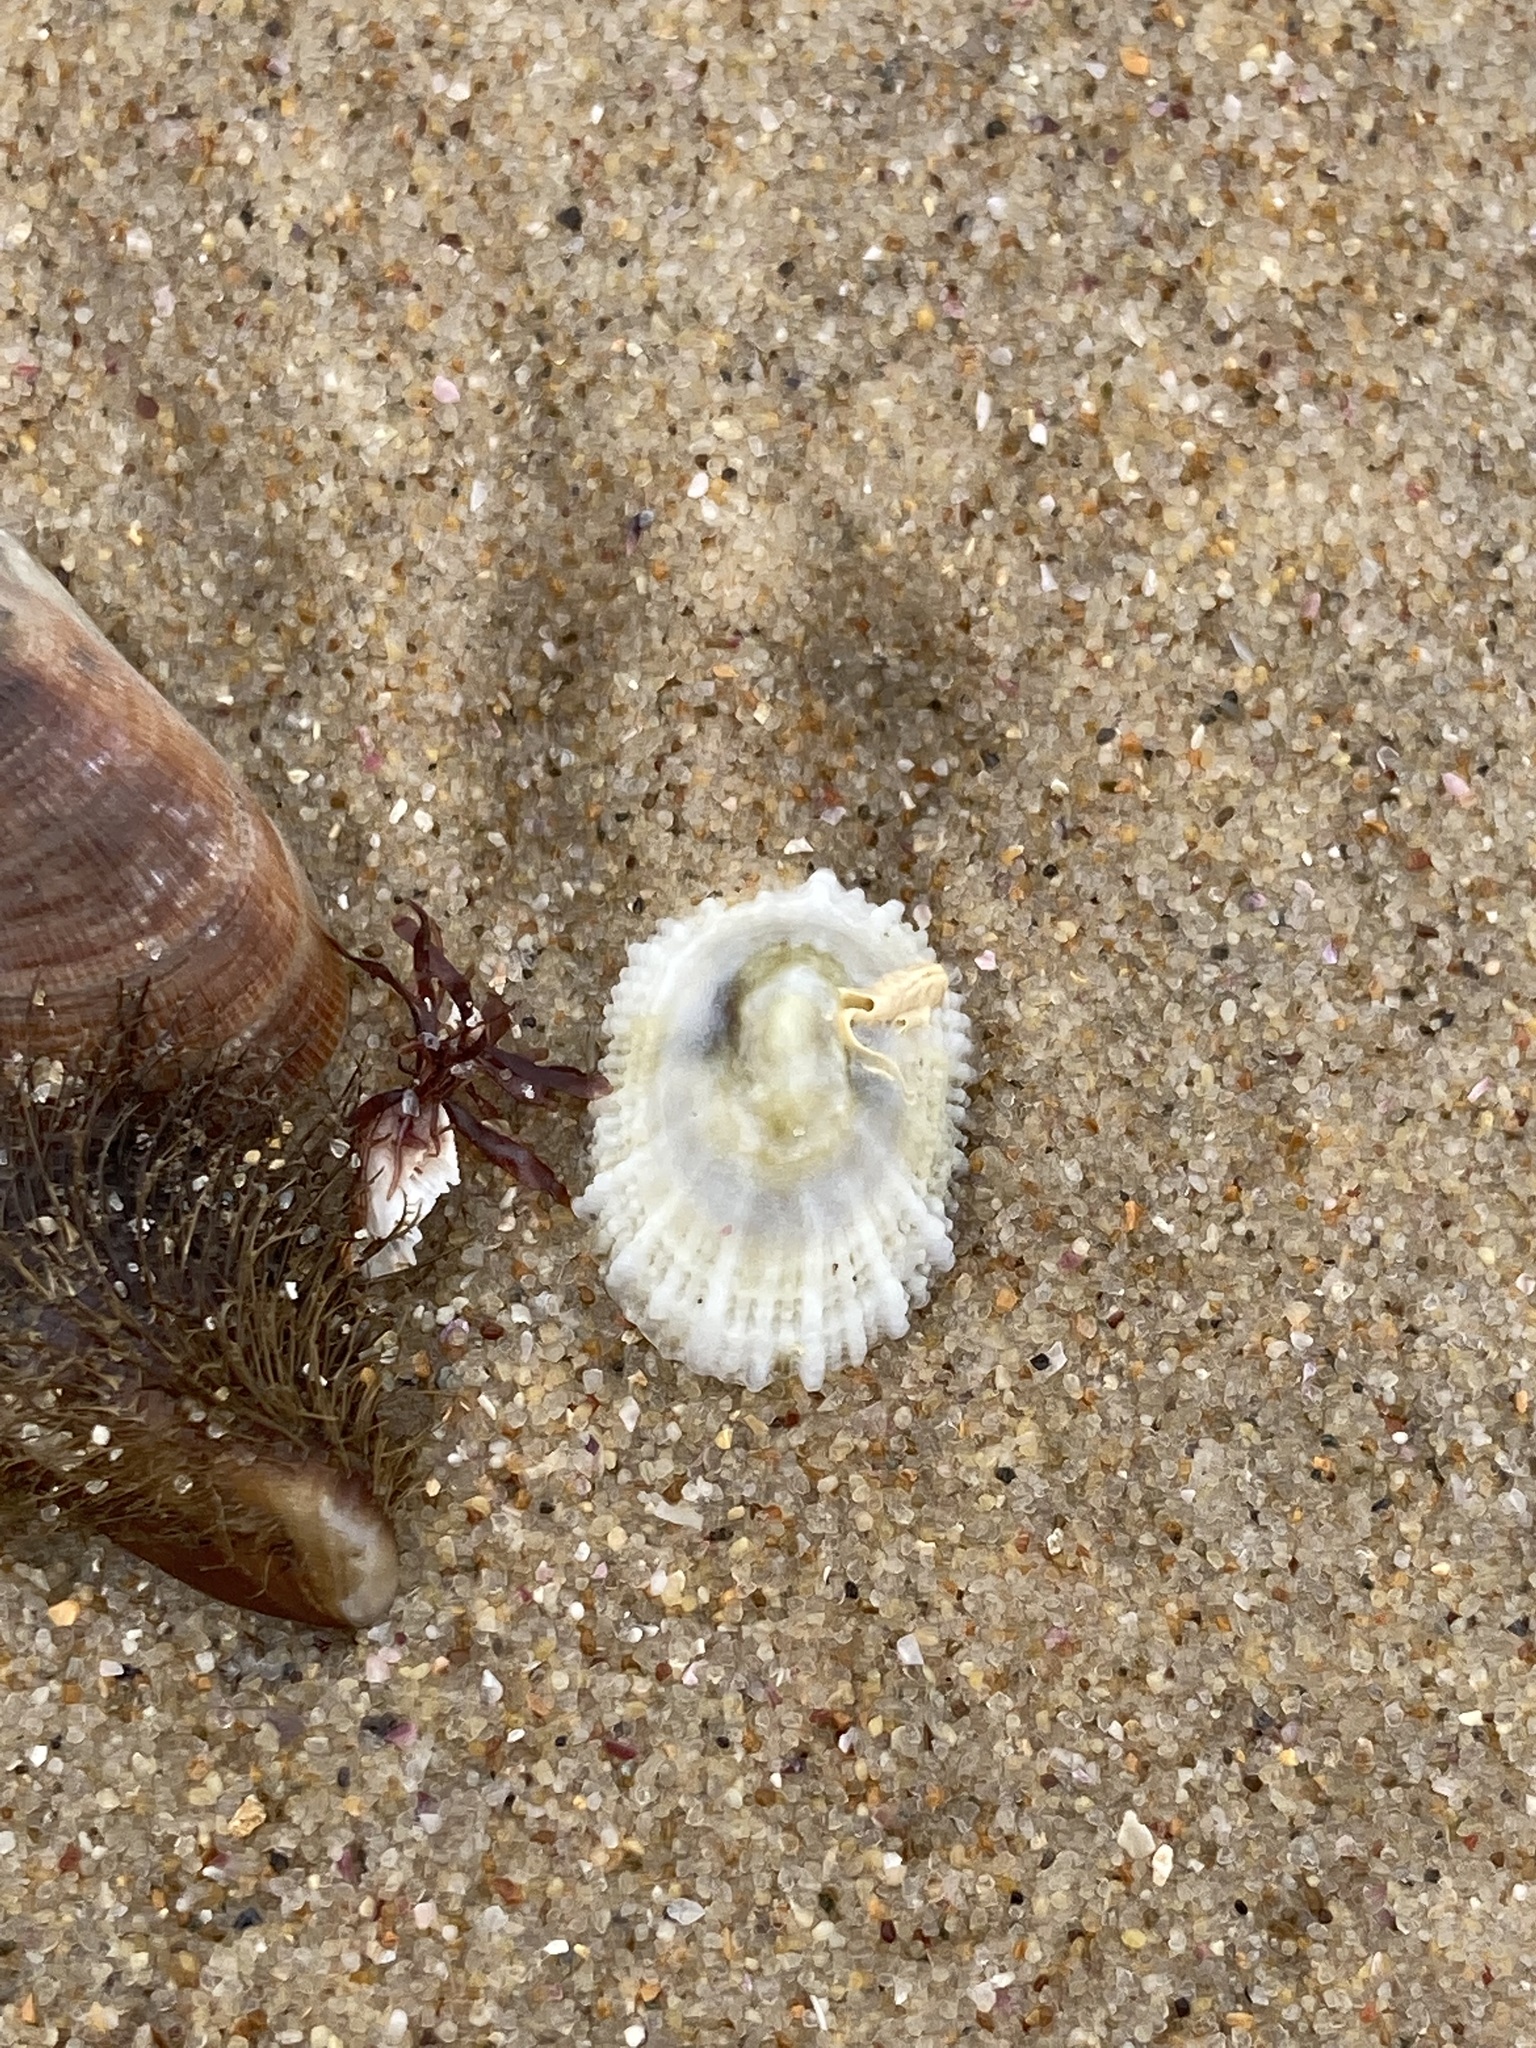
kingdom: Animalia
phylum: Mollusca
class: Gastropoda
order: Lepetellida
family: Fissurellidae
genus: Montfortula
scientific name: Montfortula rugosa
